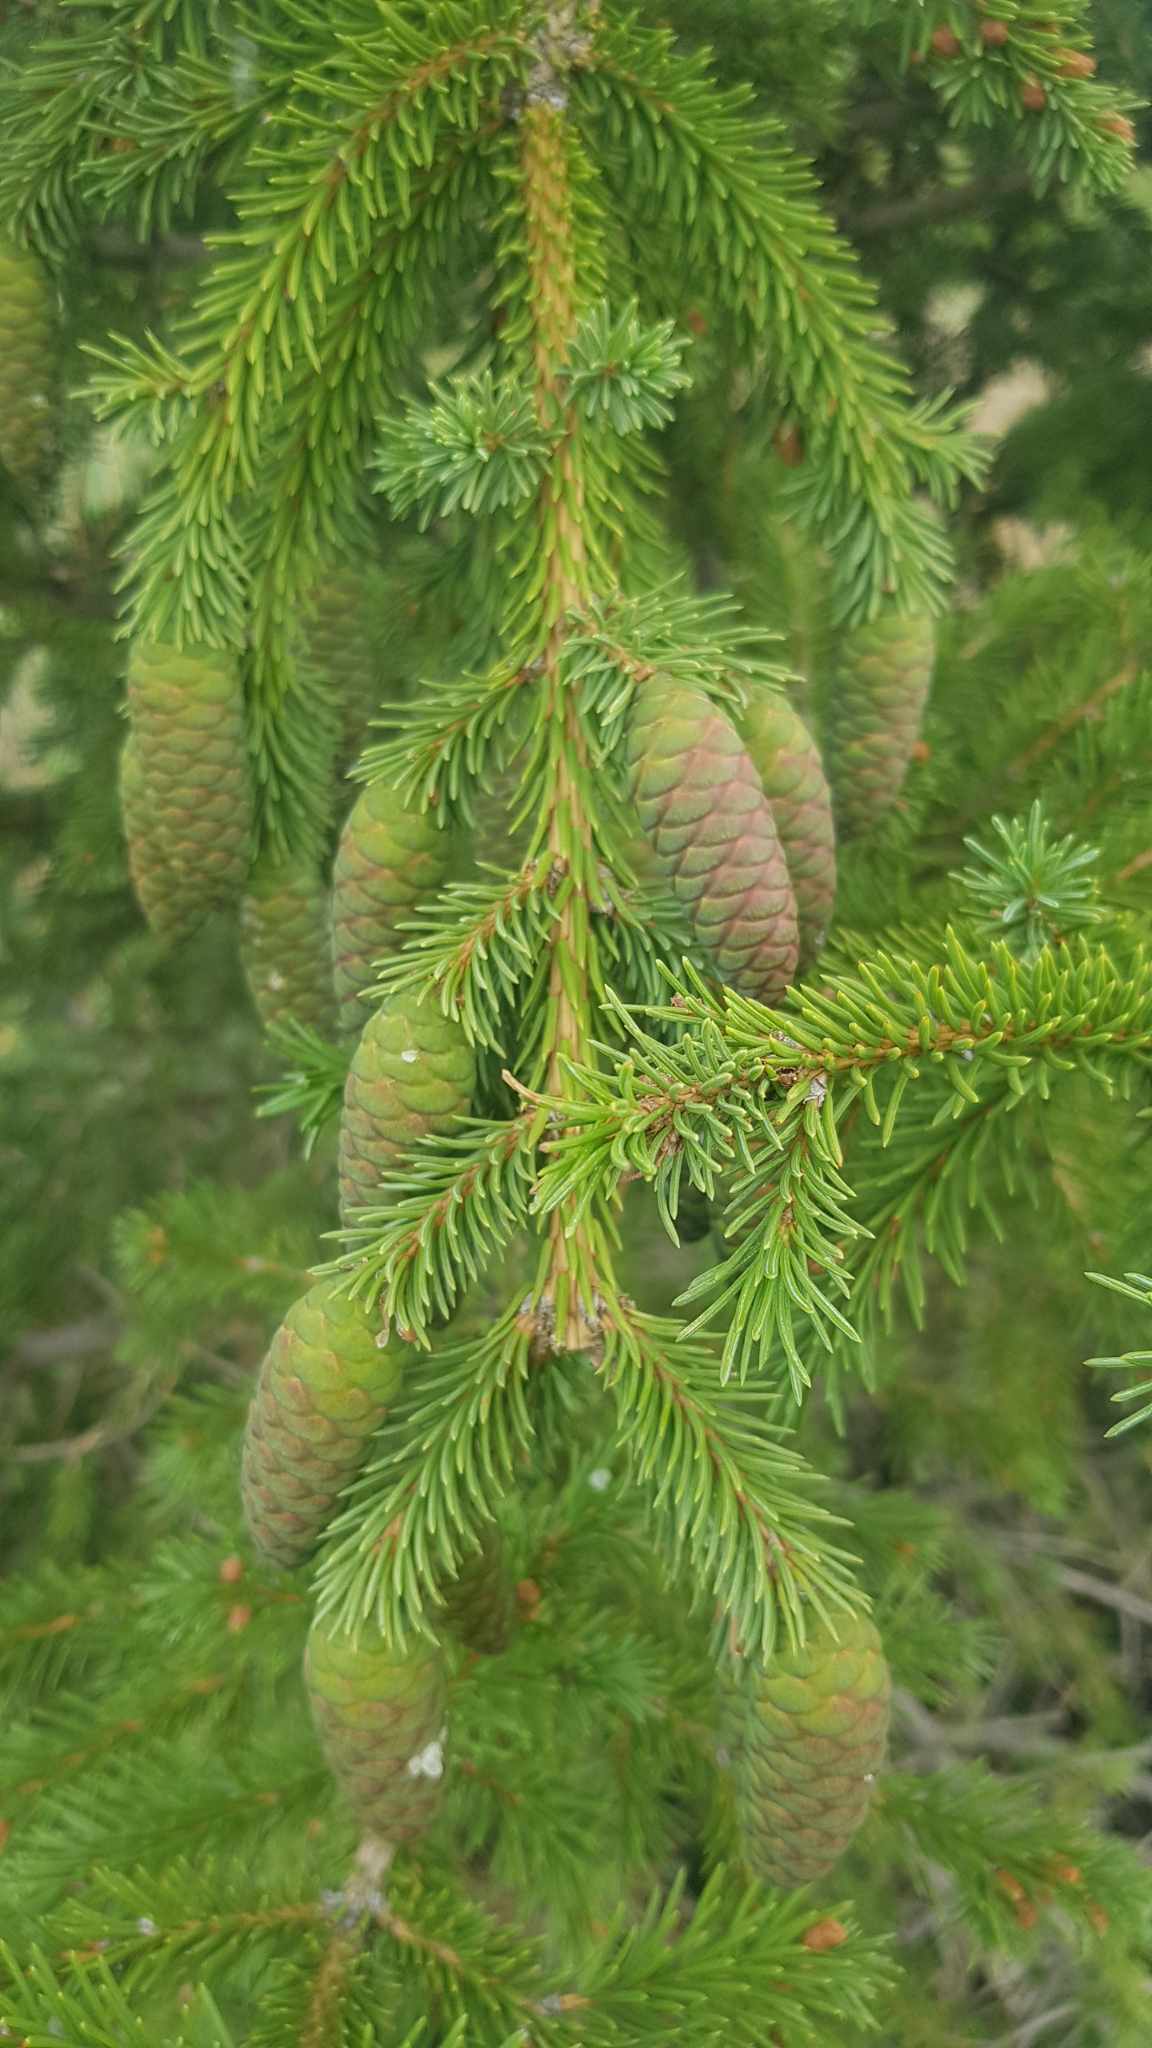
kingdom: Plantae
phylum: Tracheophyta
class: Pinopsida
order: Pinales
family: Pinaceae
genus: Picea
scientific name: Picea obovata
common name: Siberian spruce
